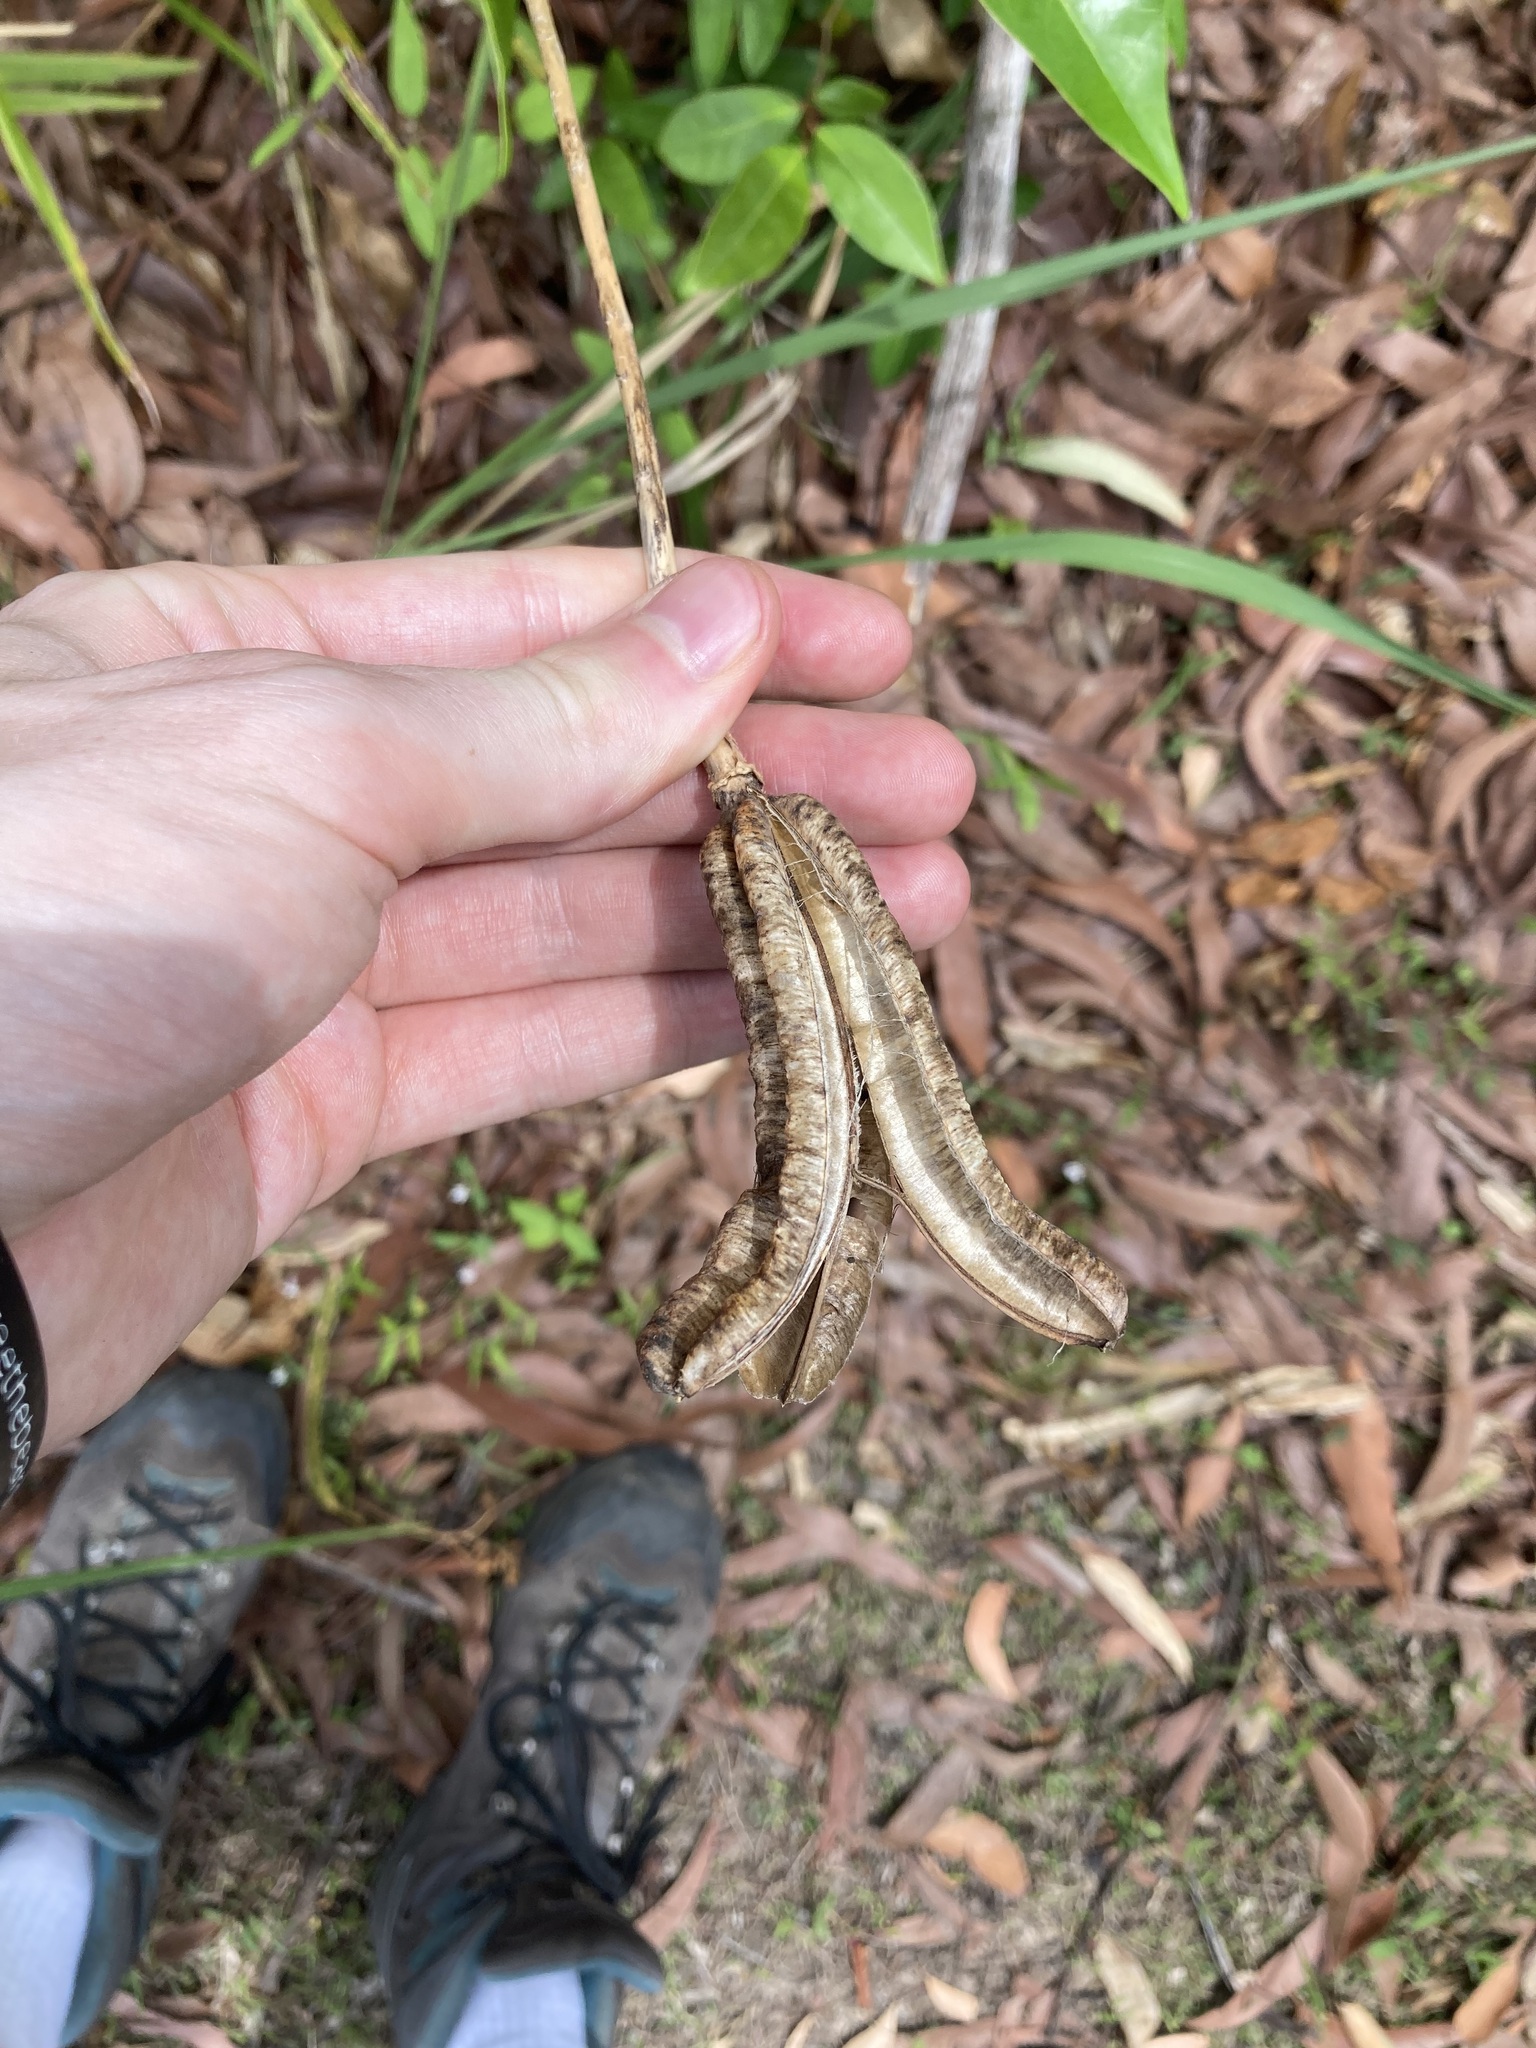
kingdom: Plantae
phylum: Tracheophyta
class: Liliopsida
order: Liliales
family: Liliaceae
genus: Lilium
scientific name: Lilium formosanum
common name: Formosa lily
